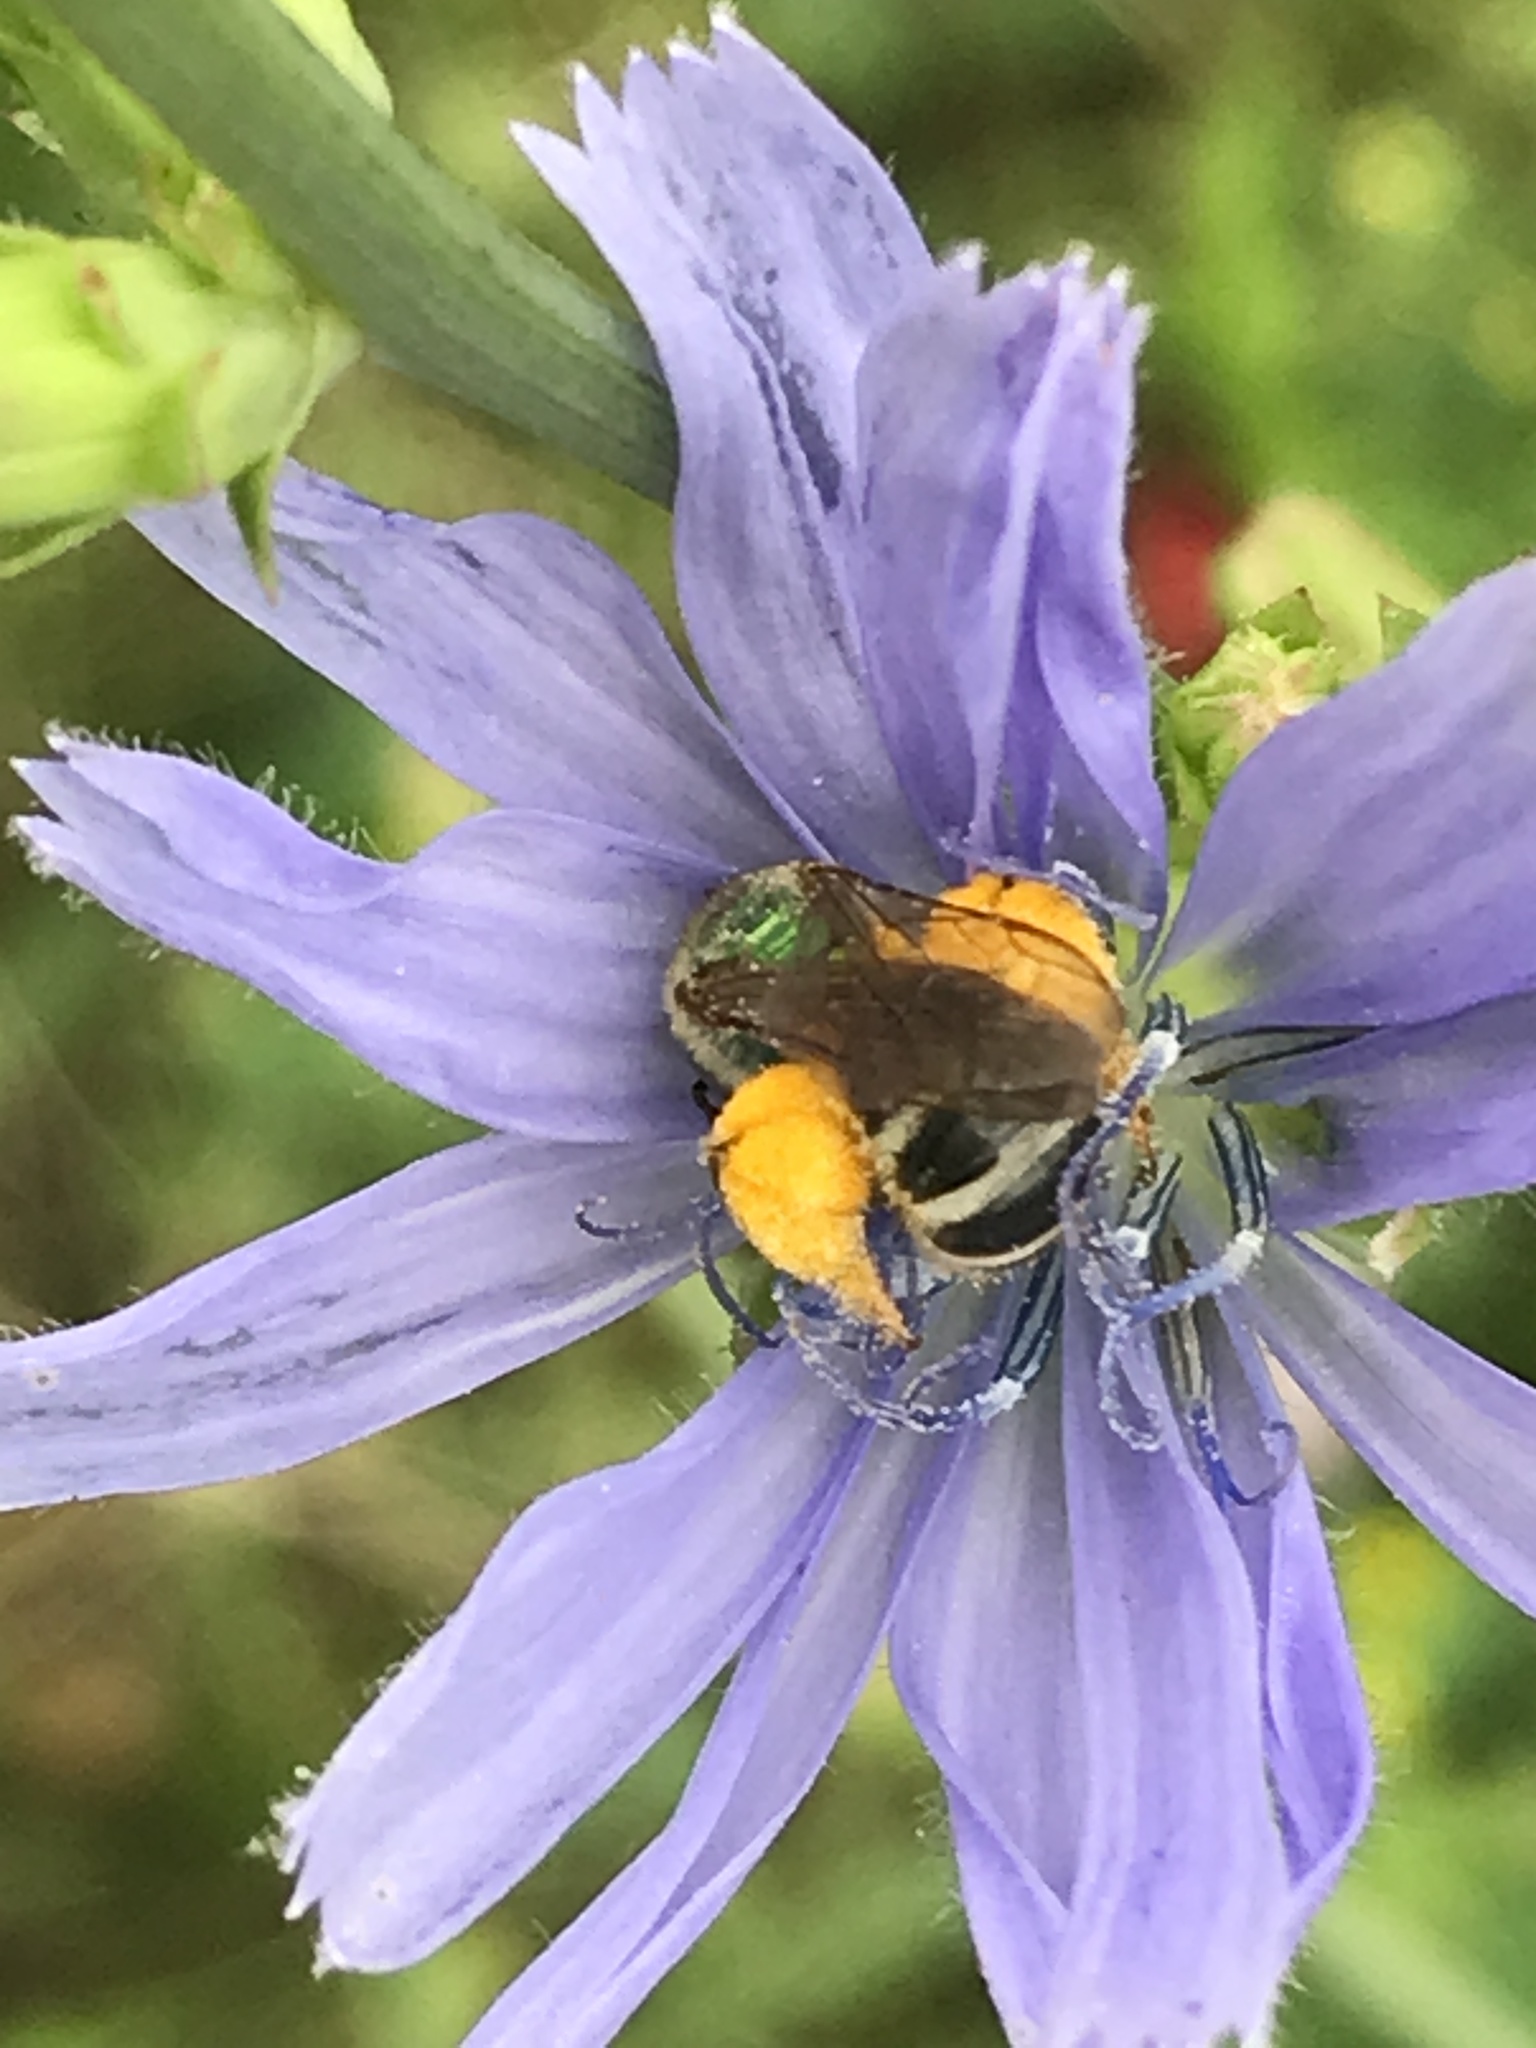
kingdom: Animalia
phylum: Arthropoda
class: Insecta
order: Hymenoptera
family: Halictidae
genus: Agapostemon
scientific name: Agapostemon virescens
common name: Bicolored striped sweat bee
